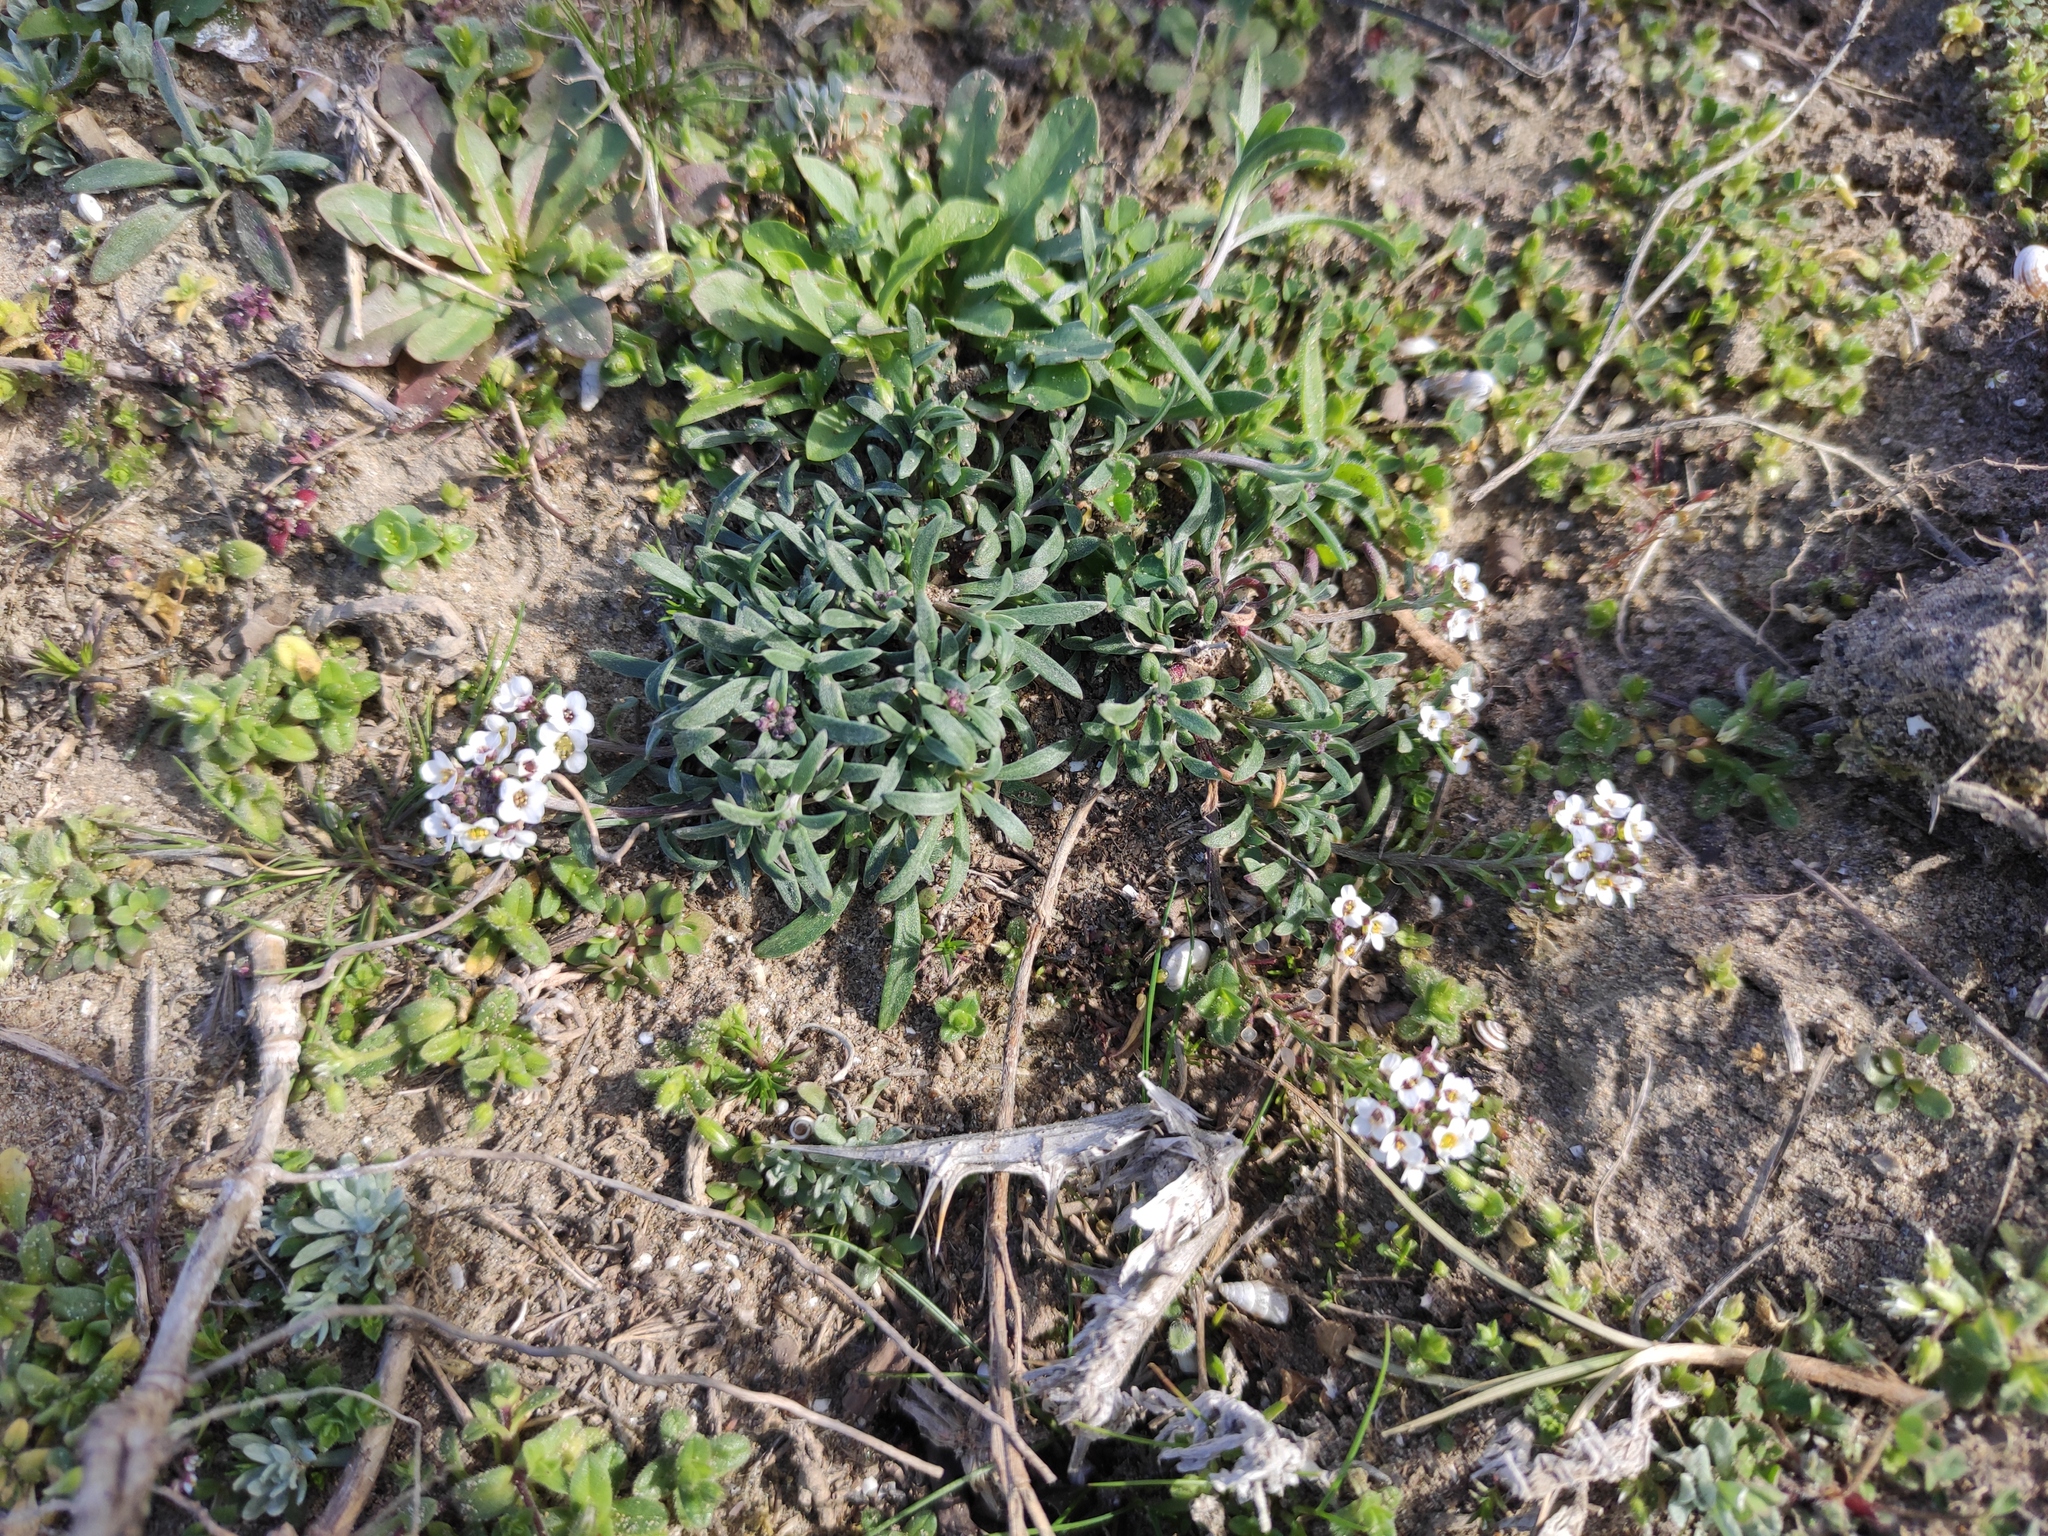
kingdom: Plantae
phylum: Tracheophyta
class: Magnoliopsida
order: Brassicales
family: Brassicaceae
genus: Lobularia
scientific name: Lobularia maritima
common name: Sweet alison
